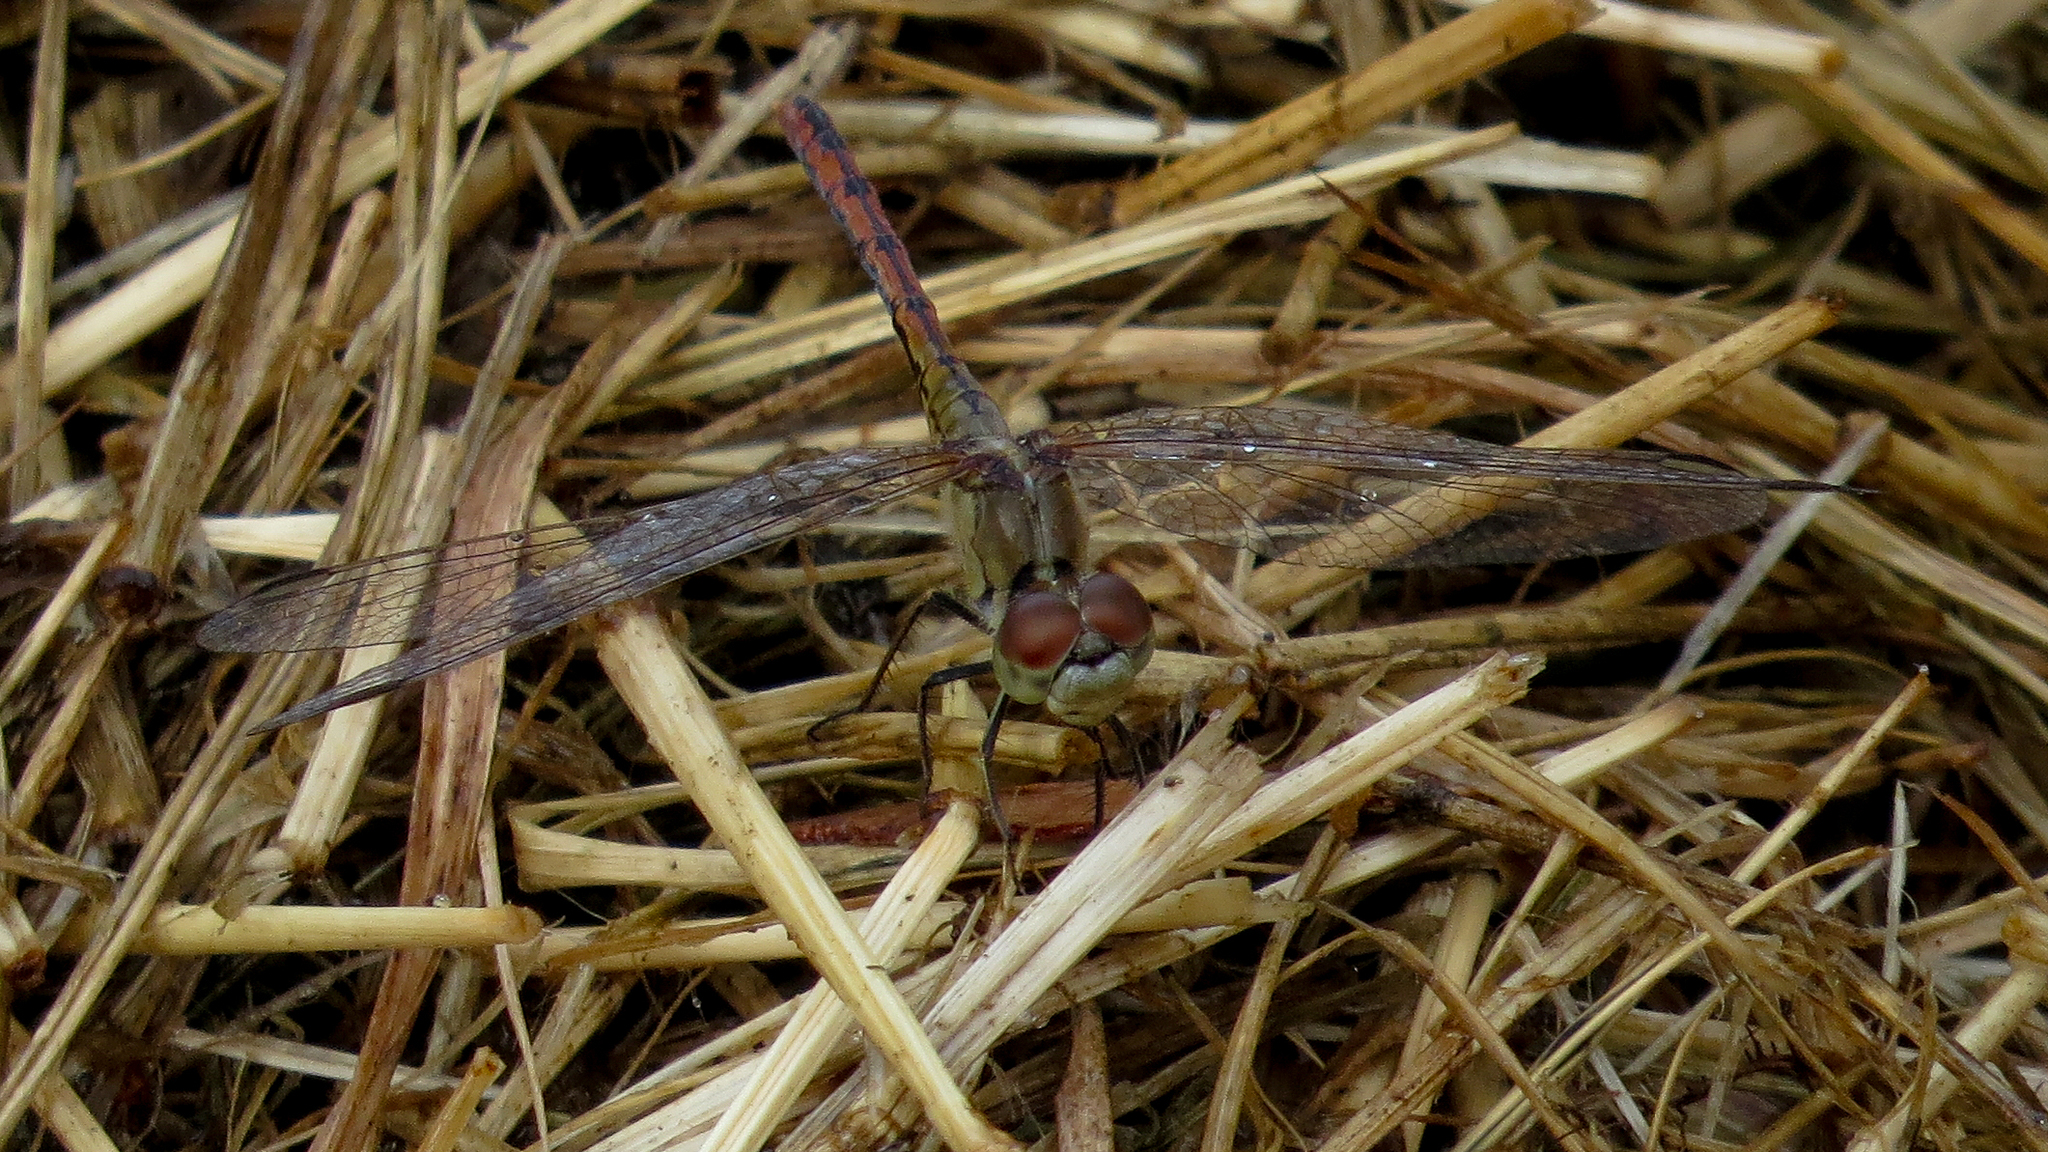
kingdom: Animalia
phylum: Arthropoda
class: Insecta
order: Odonata
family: Libellulidae
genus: Diplacodes
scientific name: Diplacodes bipunctata
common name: Red percher dragonfly
